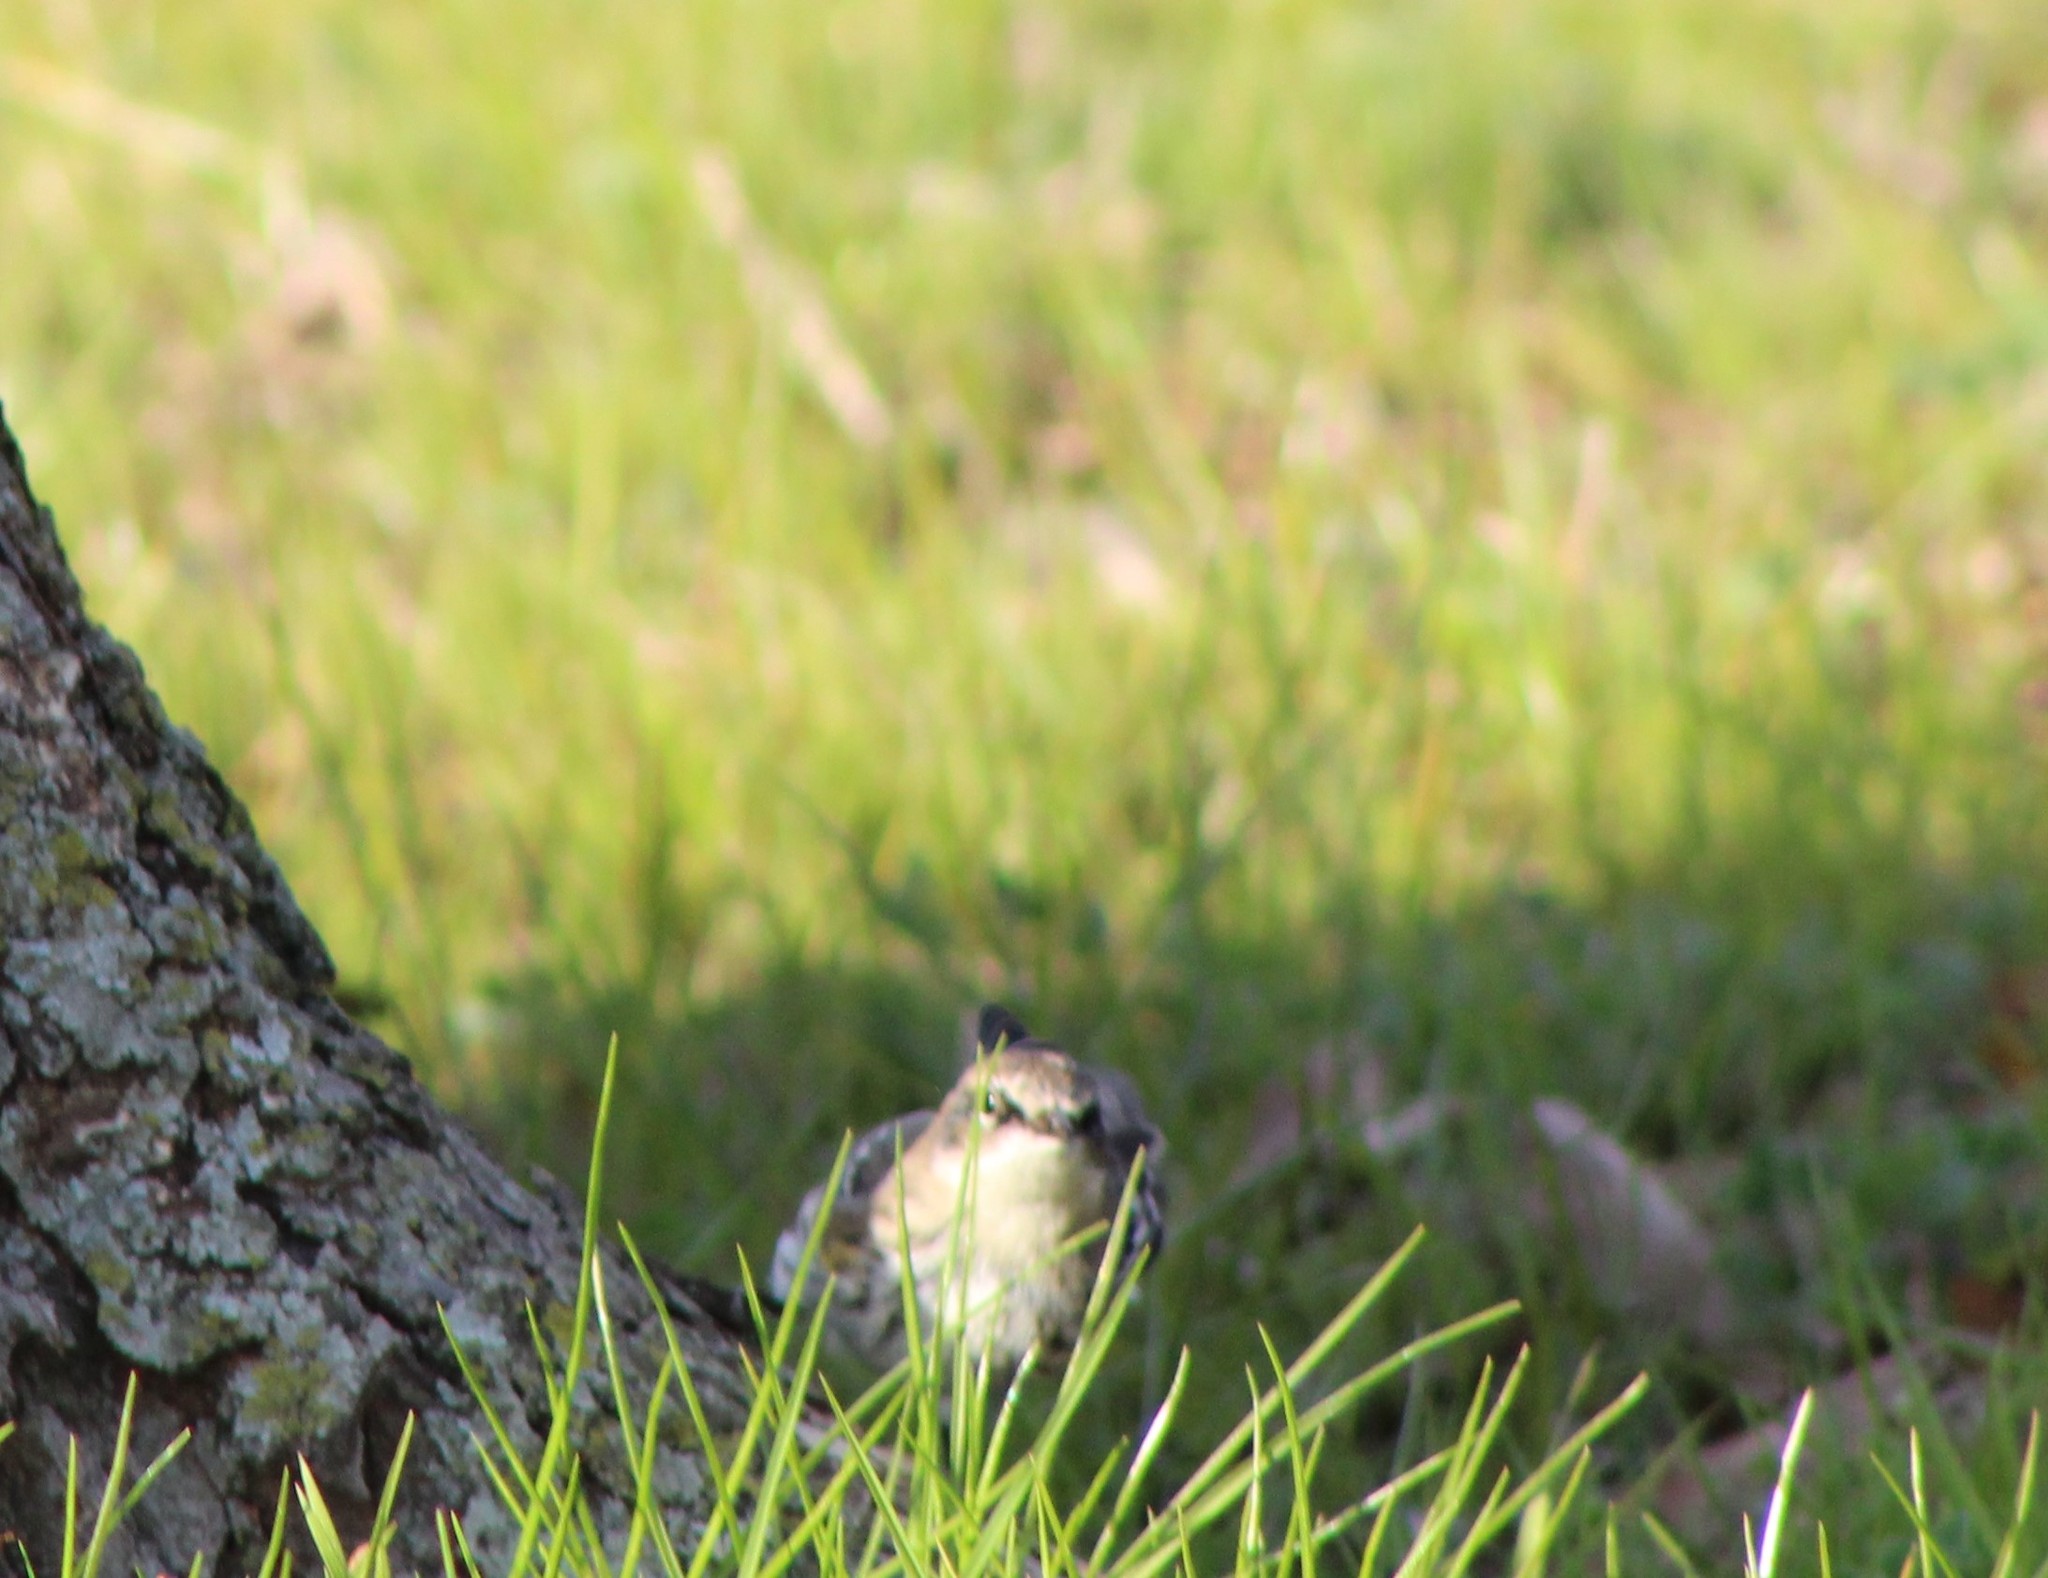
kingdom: Animalia
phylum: Chordata
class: Aves
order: Passeriformes
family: Parulidae
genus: Setophaga
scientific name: Setophaga coronata
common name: Myrtle warbler
